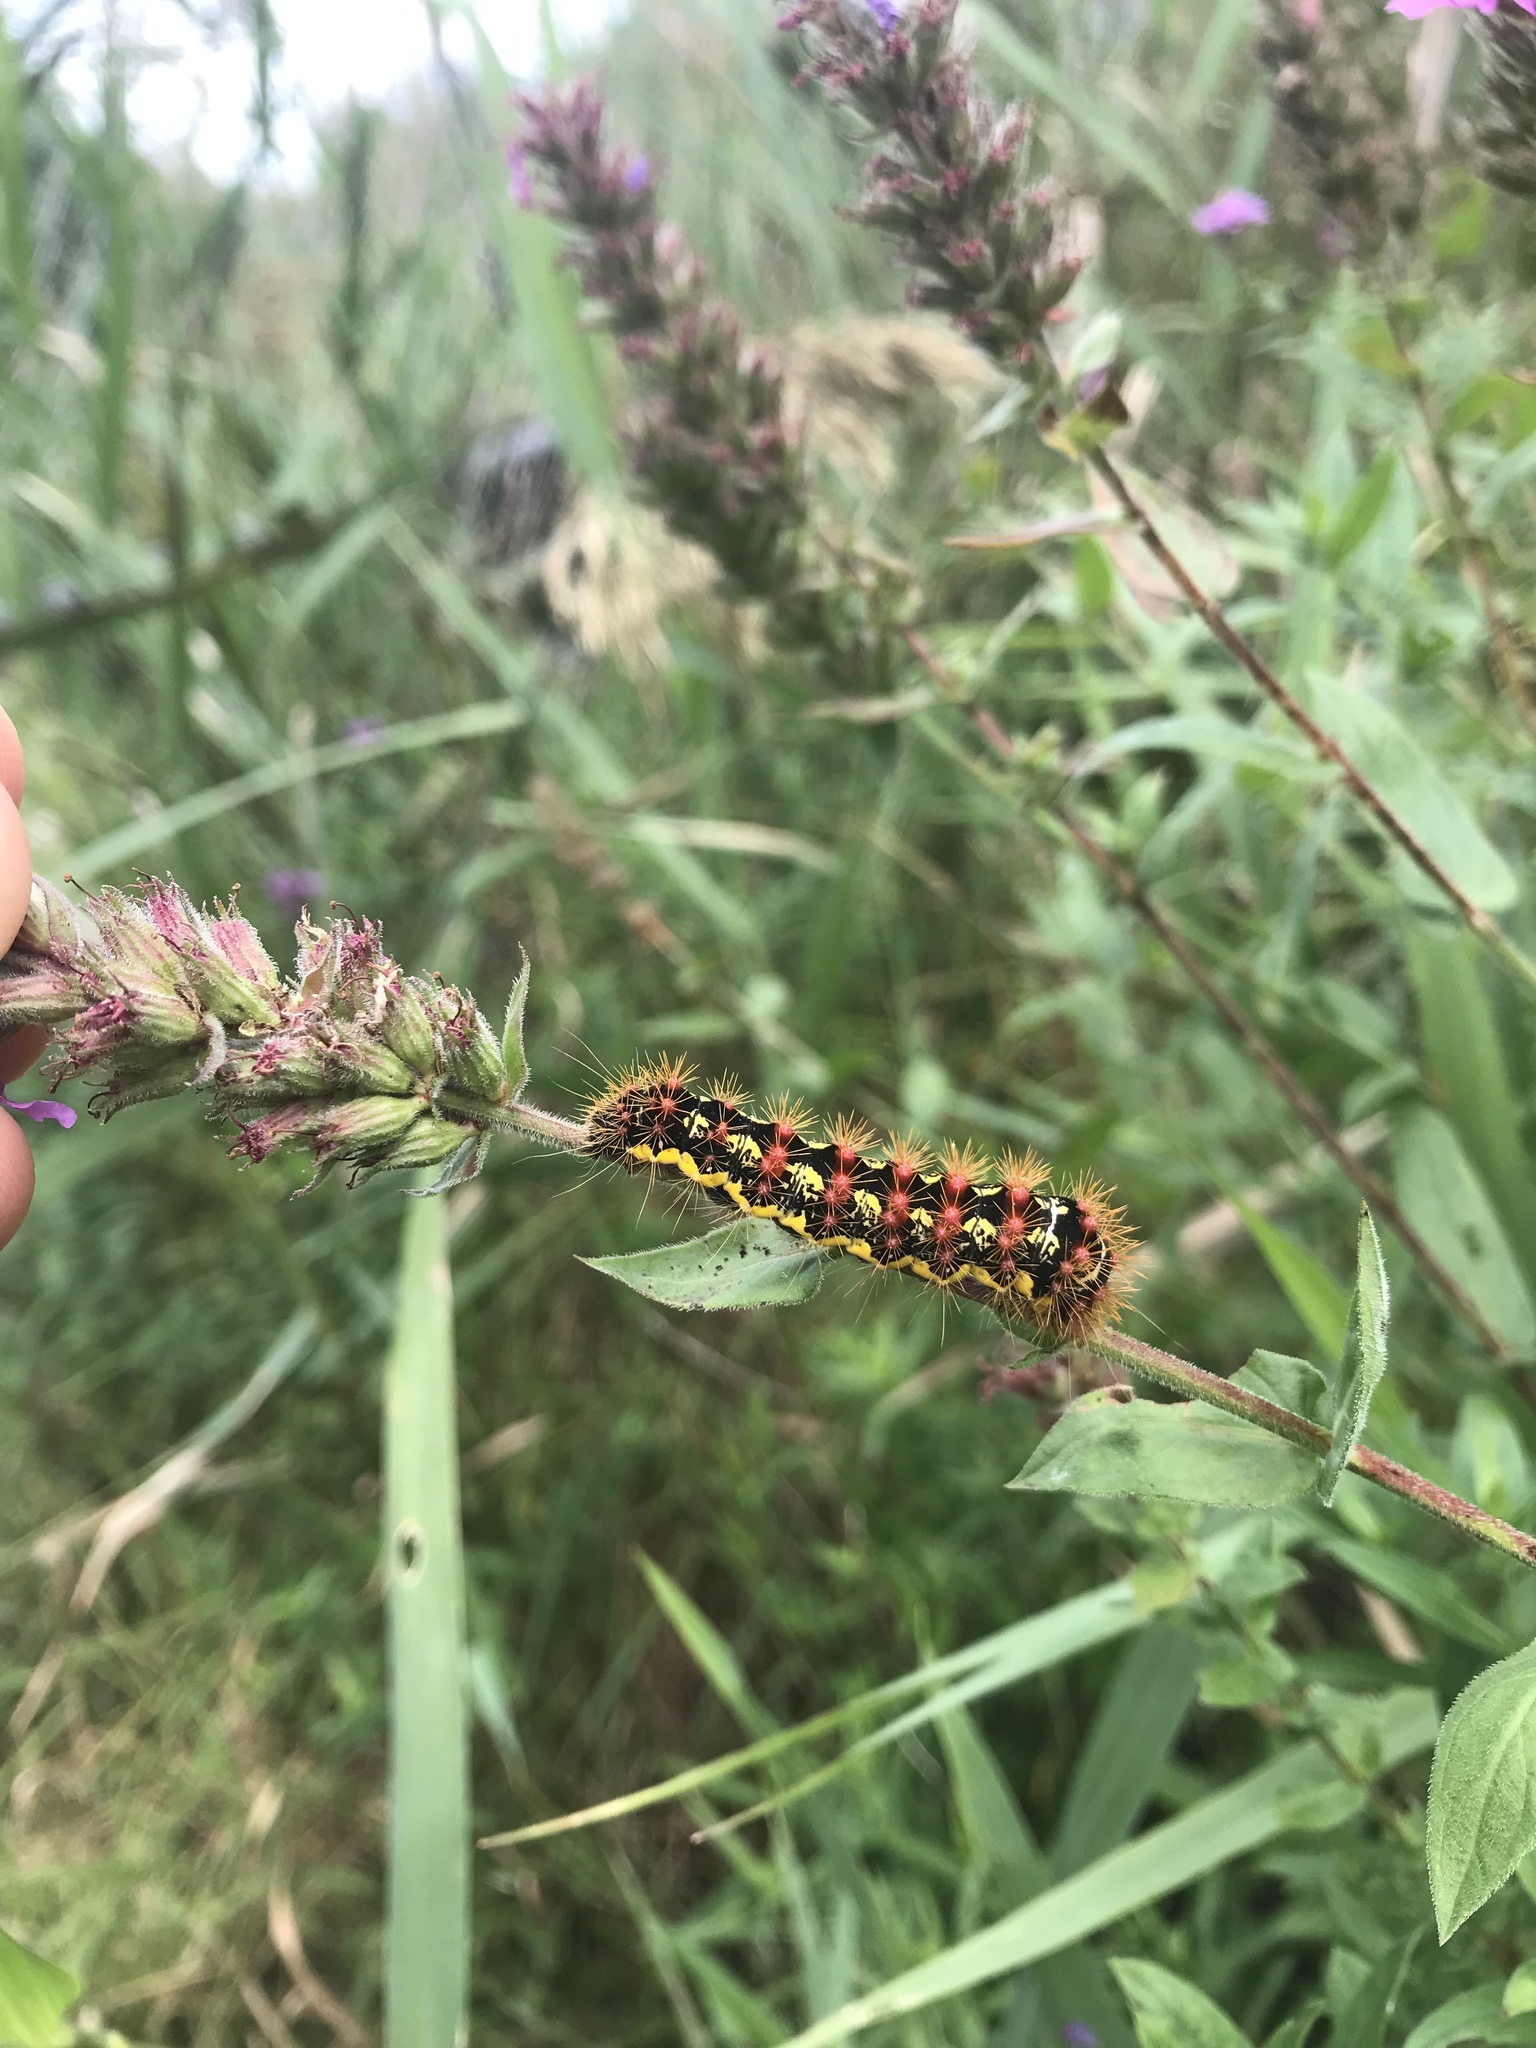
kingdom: Animalia
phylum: Arthropoda
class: Insecta
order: Lepidoptera
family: Noctuidae
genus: Acronicta
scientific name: Acronicta oblinita
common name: Smeared dagger
